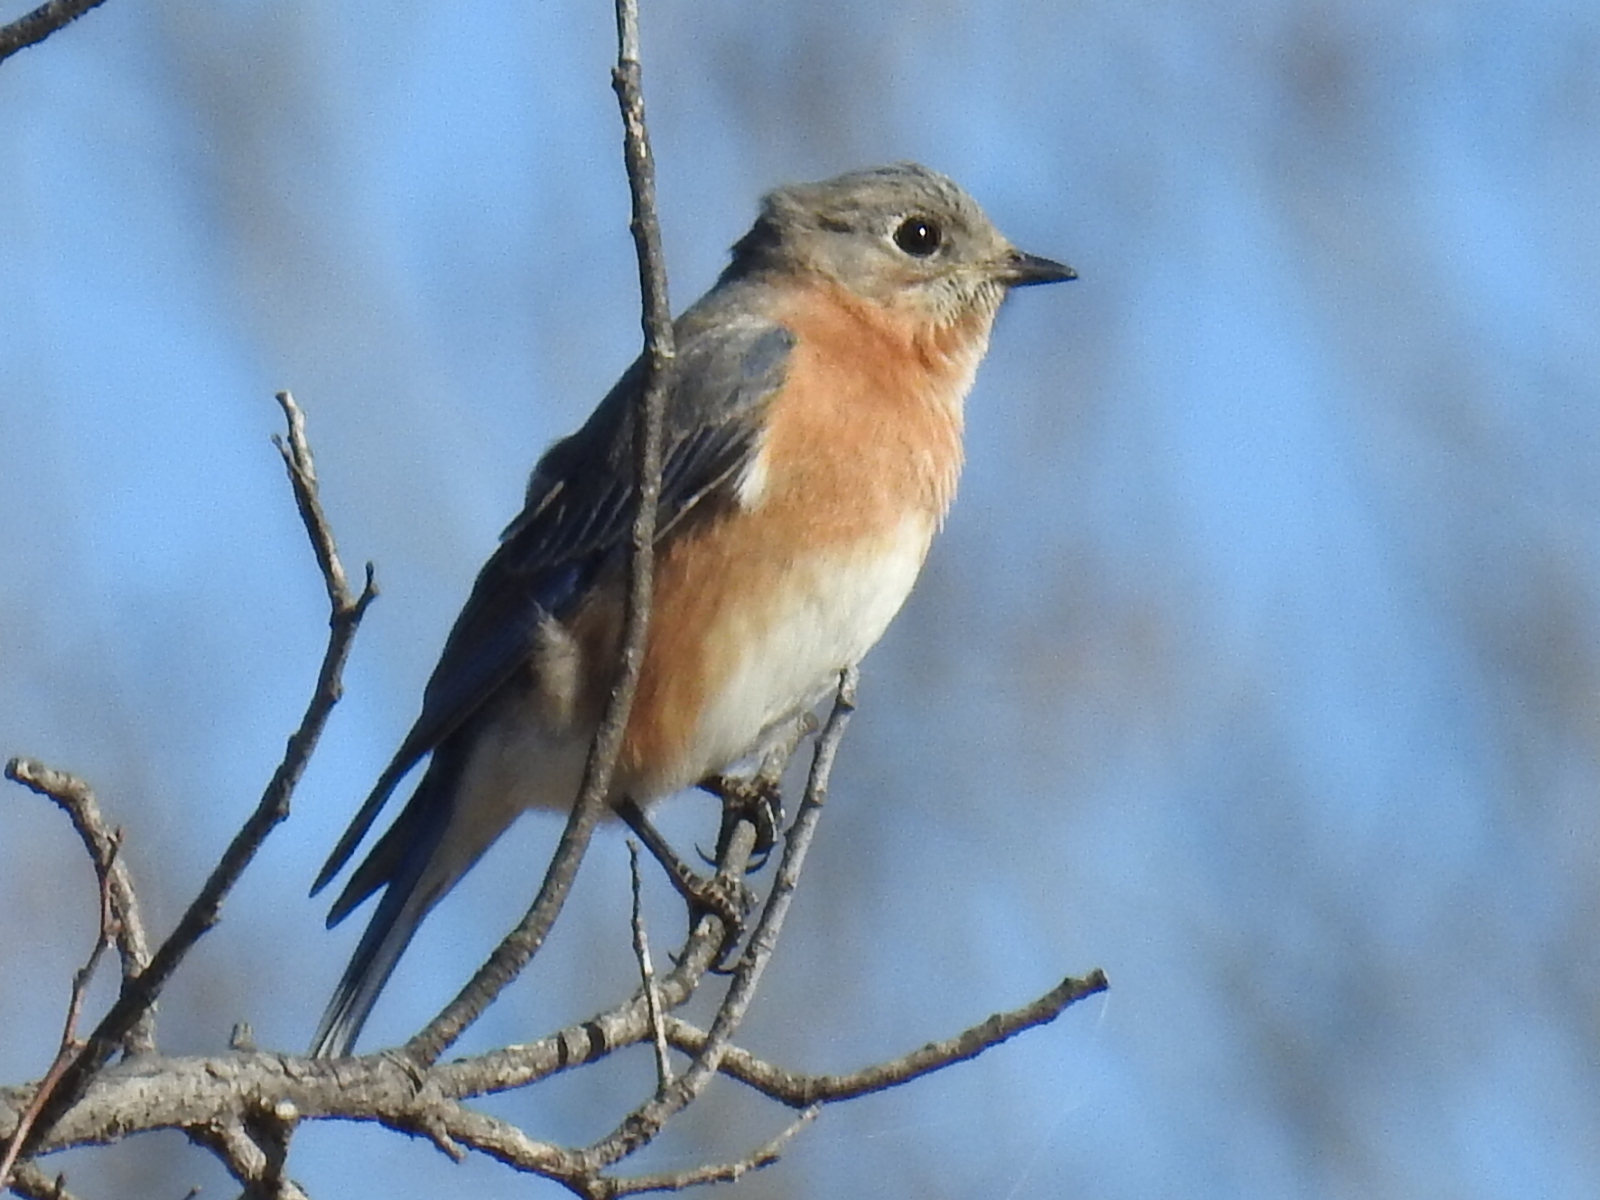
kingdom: Animalia
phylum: Chordata
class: Aves
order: Passeriformes
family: Turdidae
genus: Sialia
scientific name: Sialia sialis
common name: Eastern bluebird
